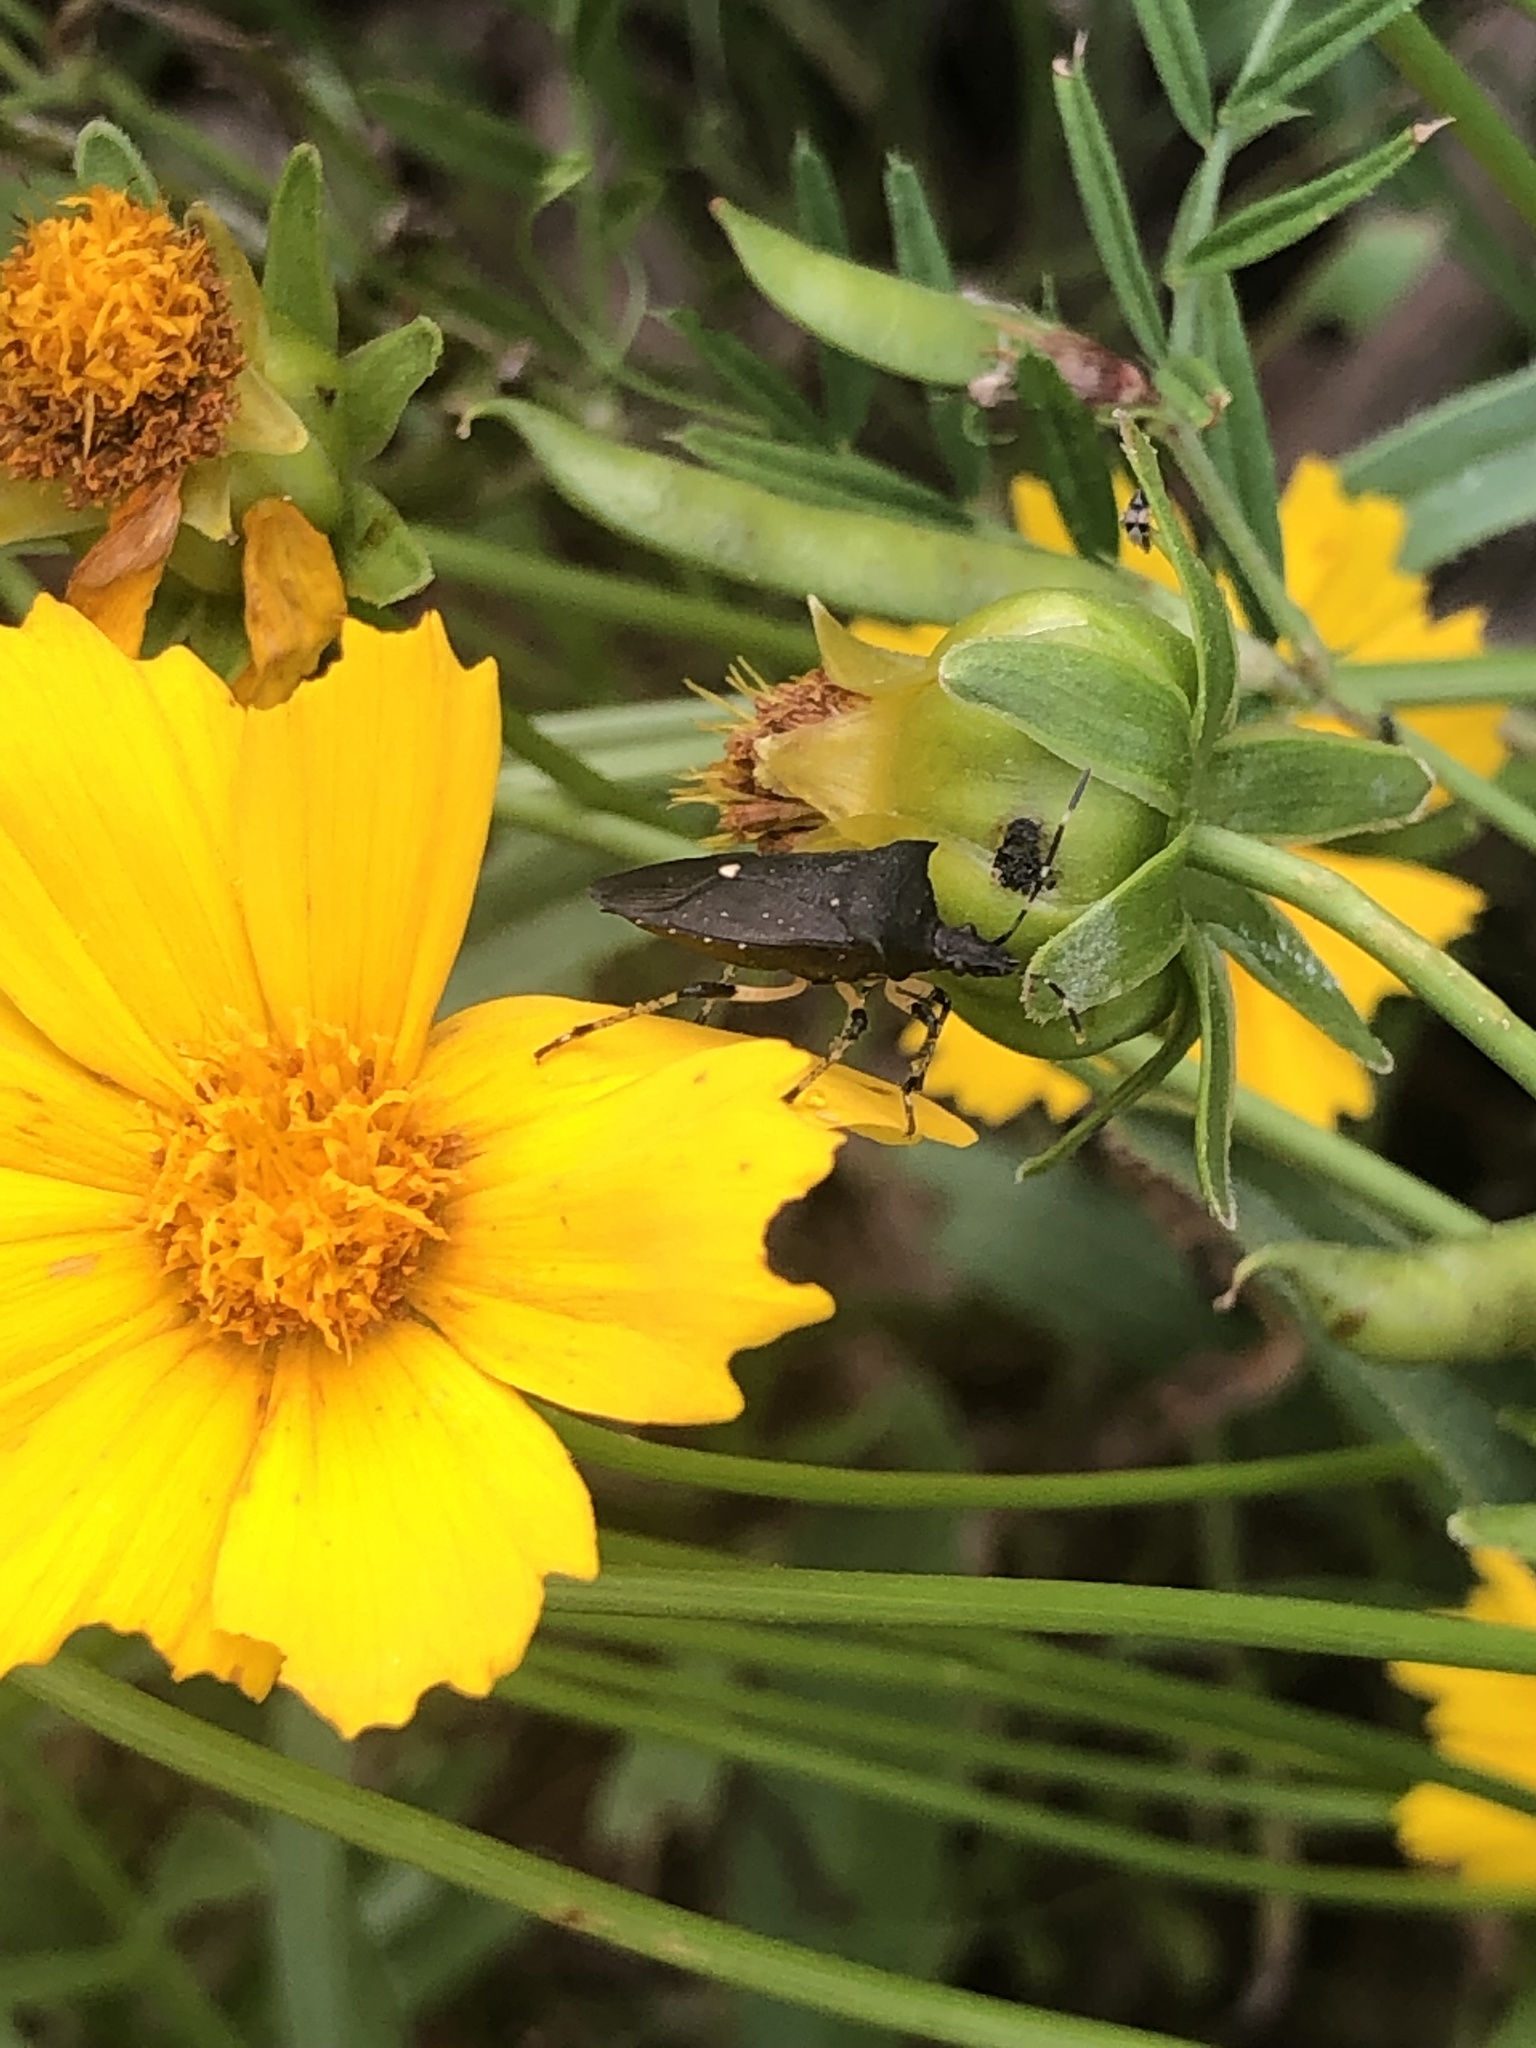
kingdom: Animalia
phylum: Arthropoda
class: Insecta
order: Hemiptera
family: Pentatomidae
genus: Proxys
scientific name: Proxys punctulatus
